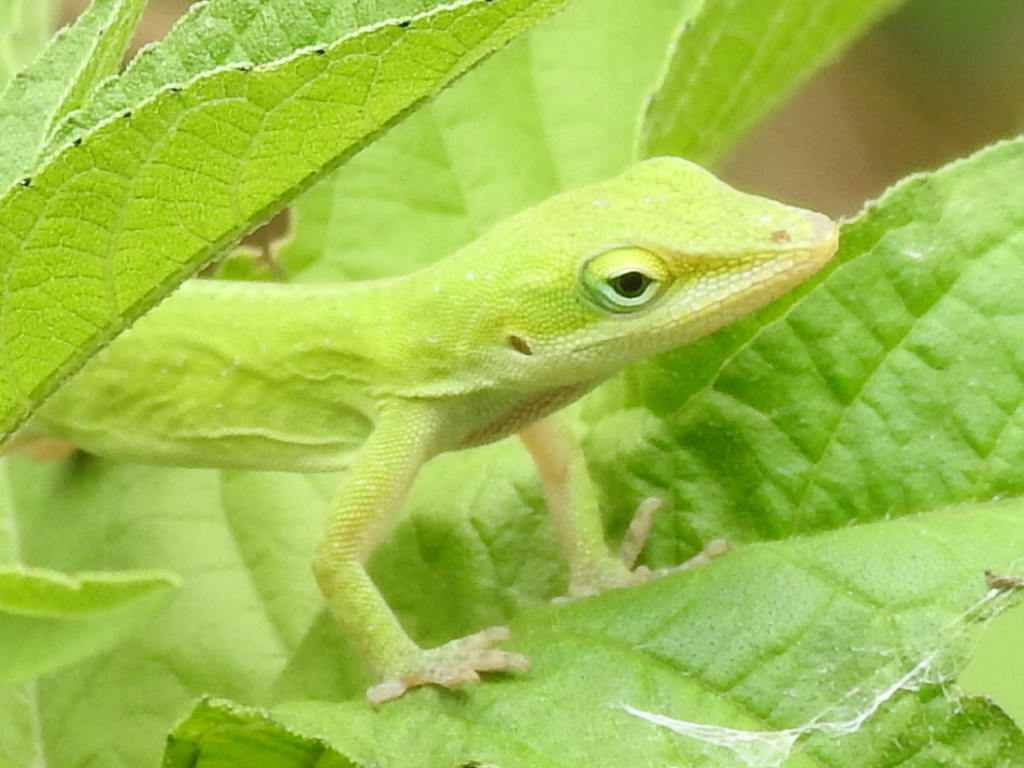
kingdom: Animalia
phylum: Chordata
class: Squamata
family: Dactyloidae
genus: Anolis
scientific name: Anolis carolinensis
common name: Green anole
